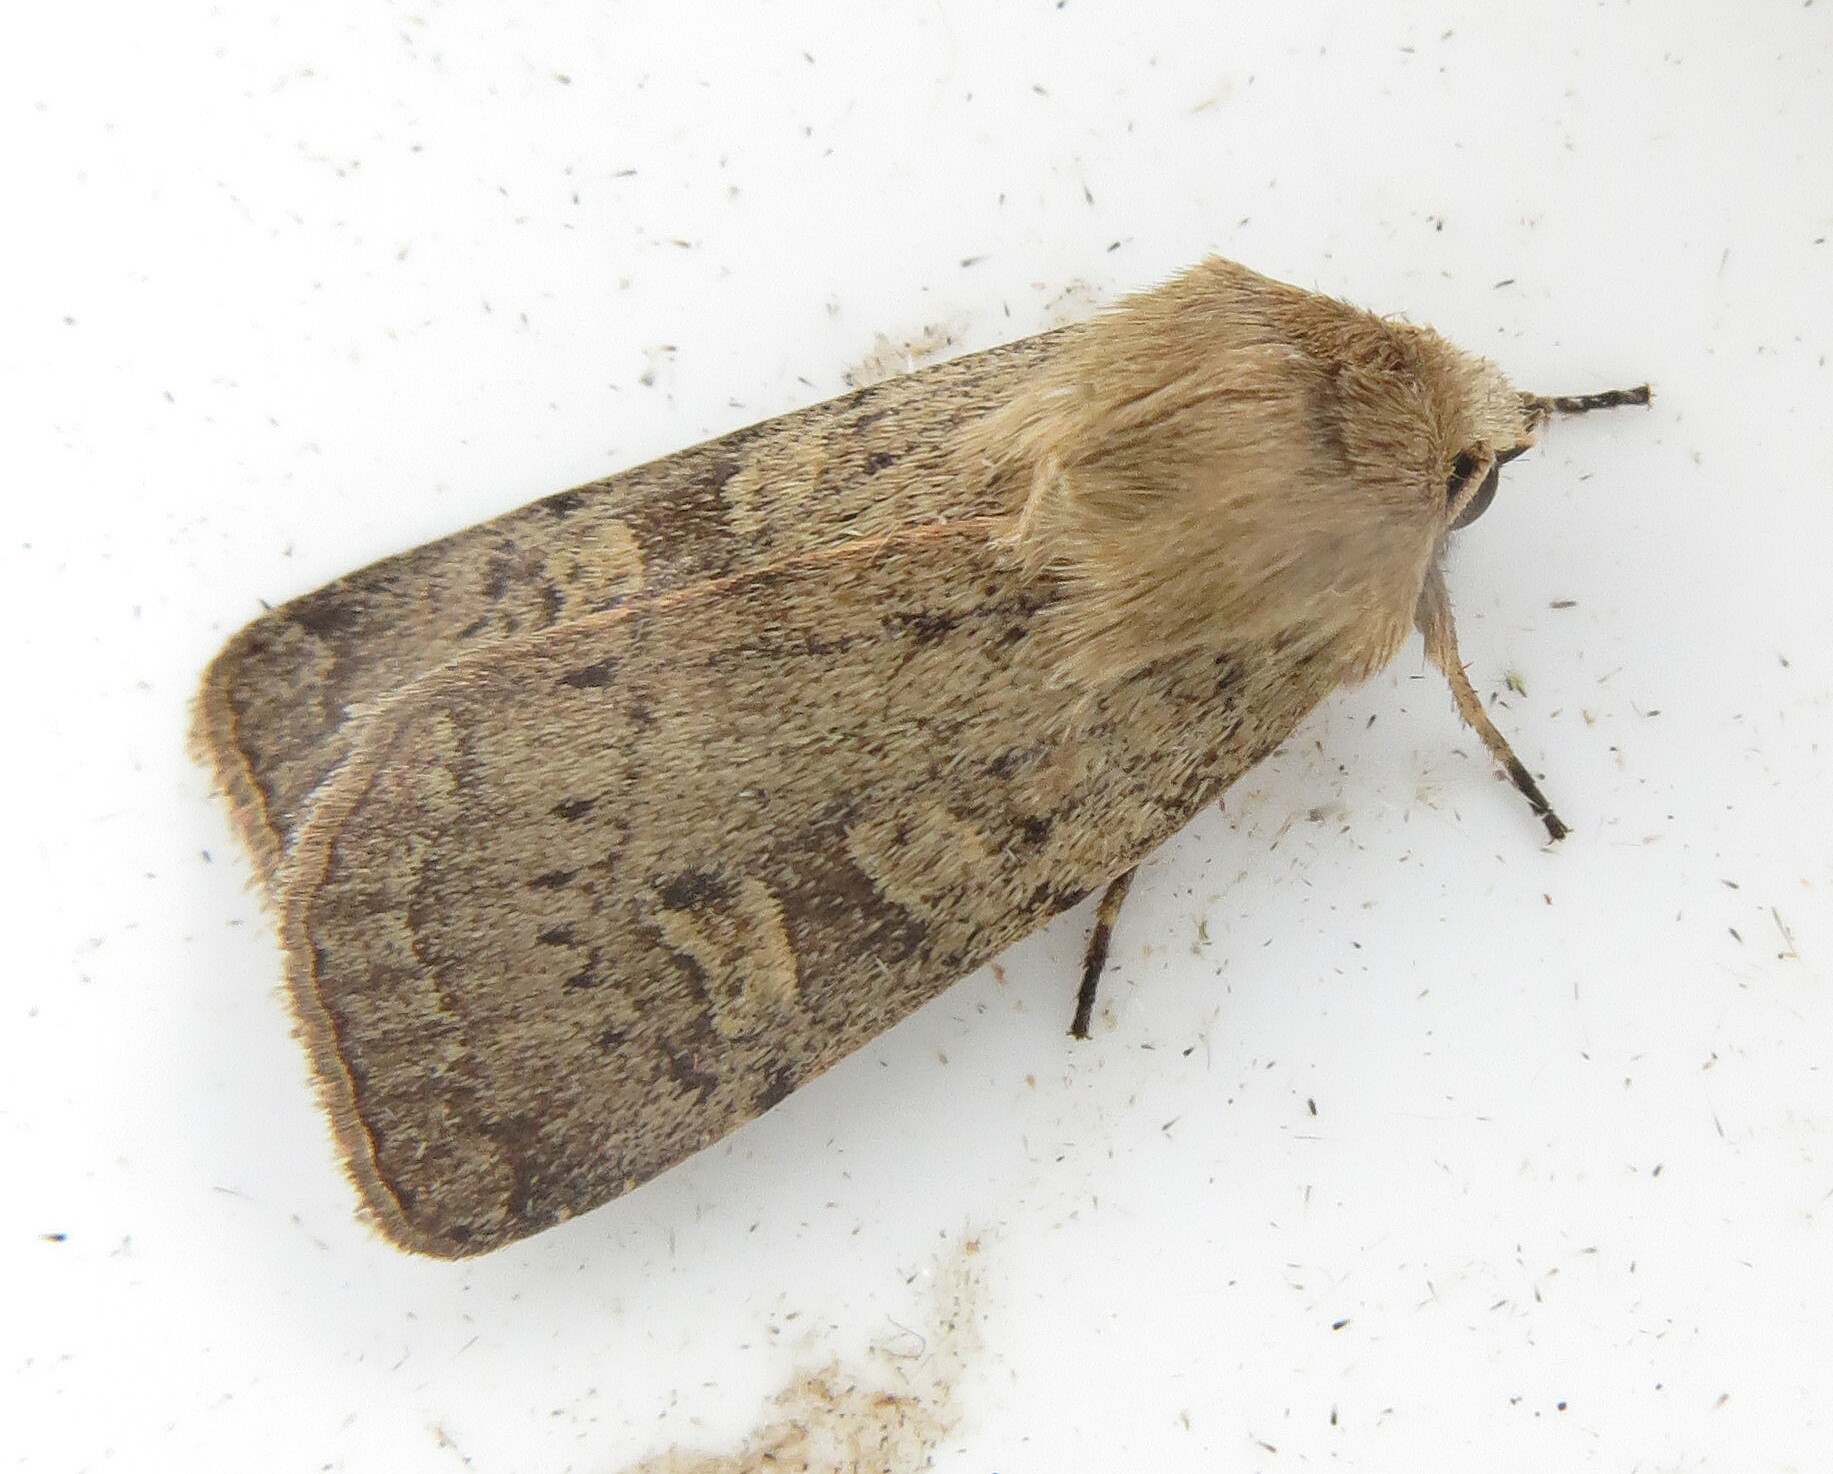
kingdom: Animalia
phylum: Arthropoda
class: Insecta
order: Lepidoptera
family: Noctuidae
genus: Xestia
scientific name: Xestia xanthographa
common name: Square-spot rustic
